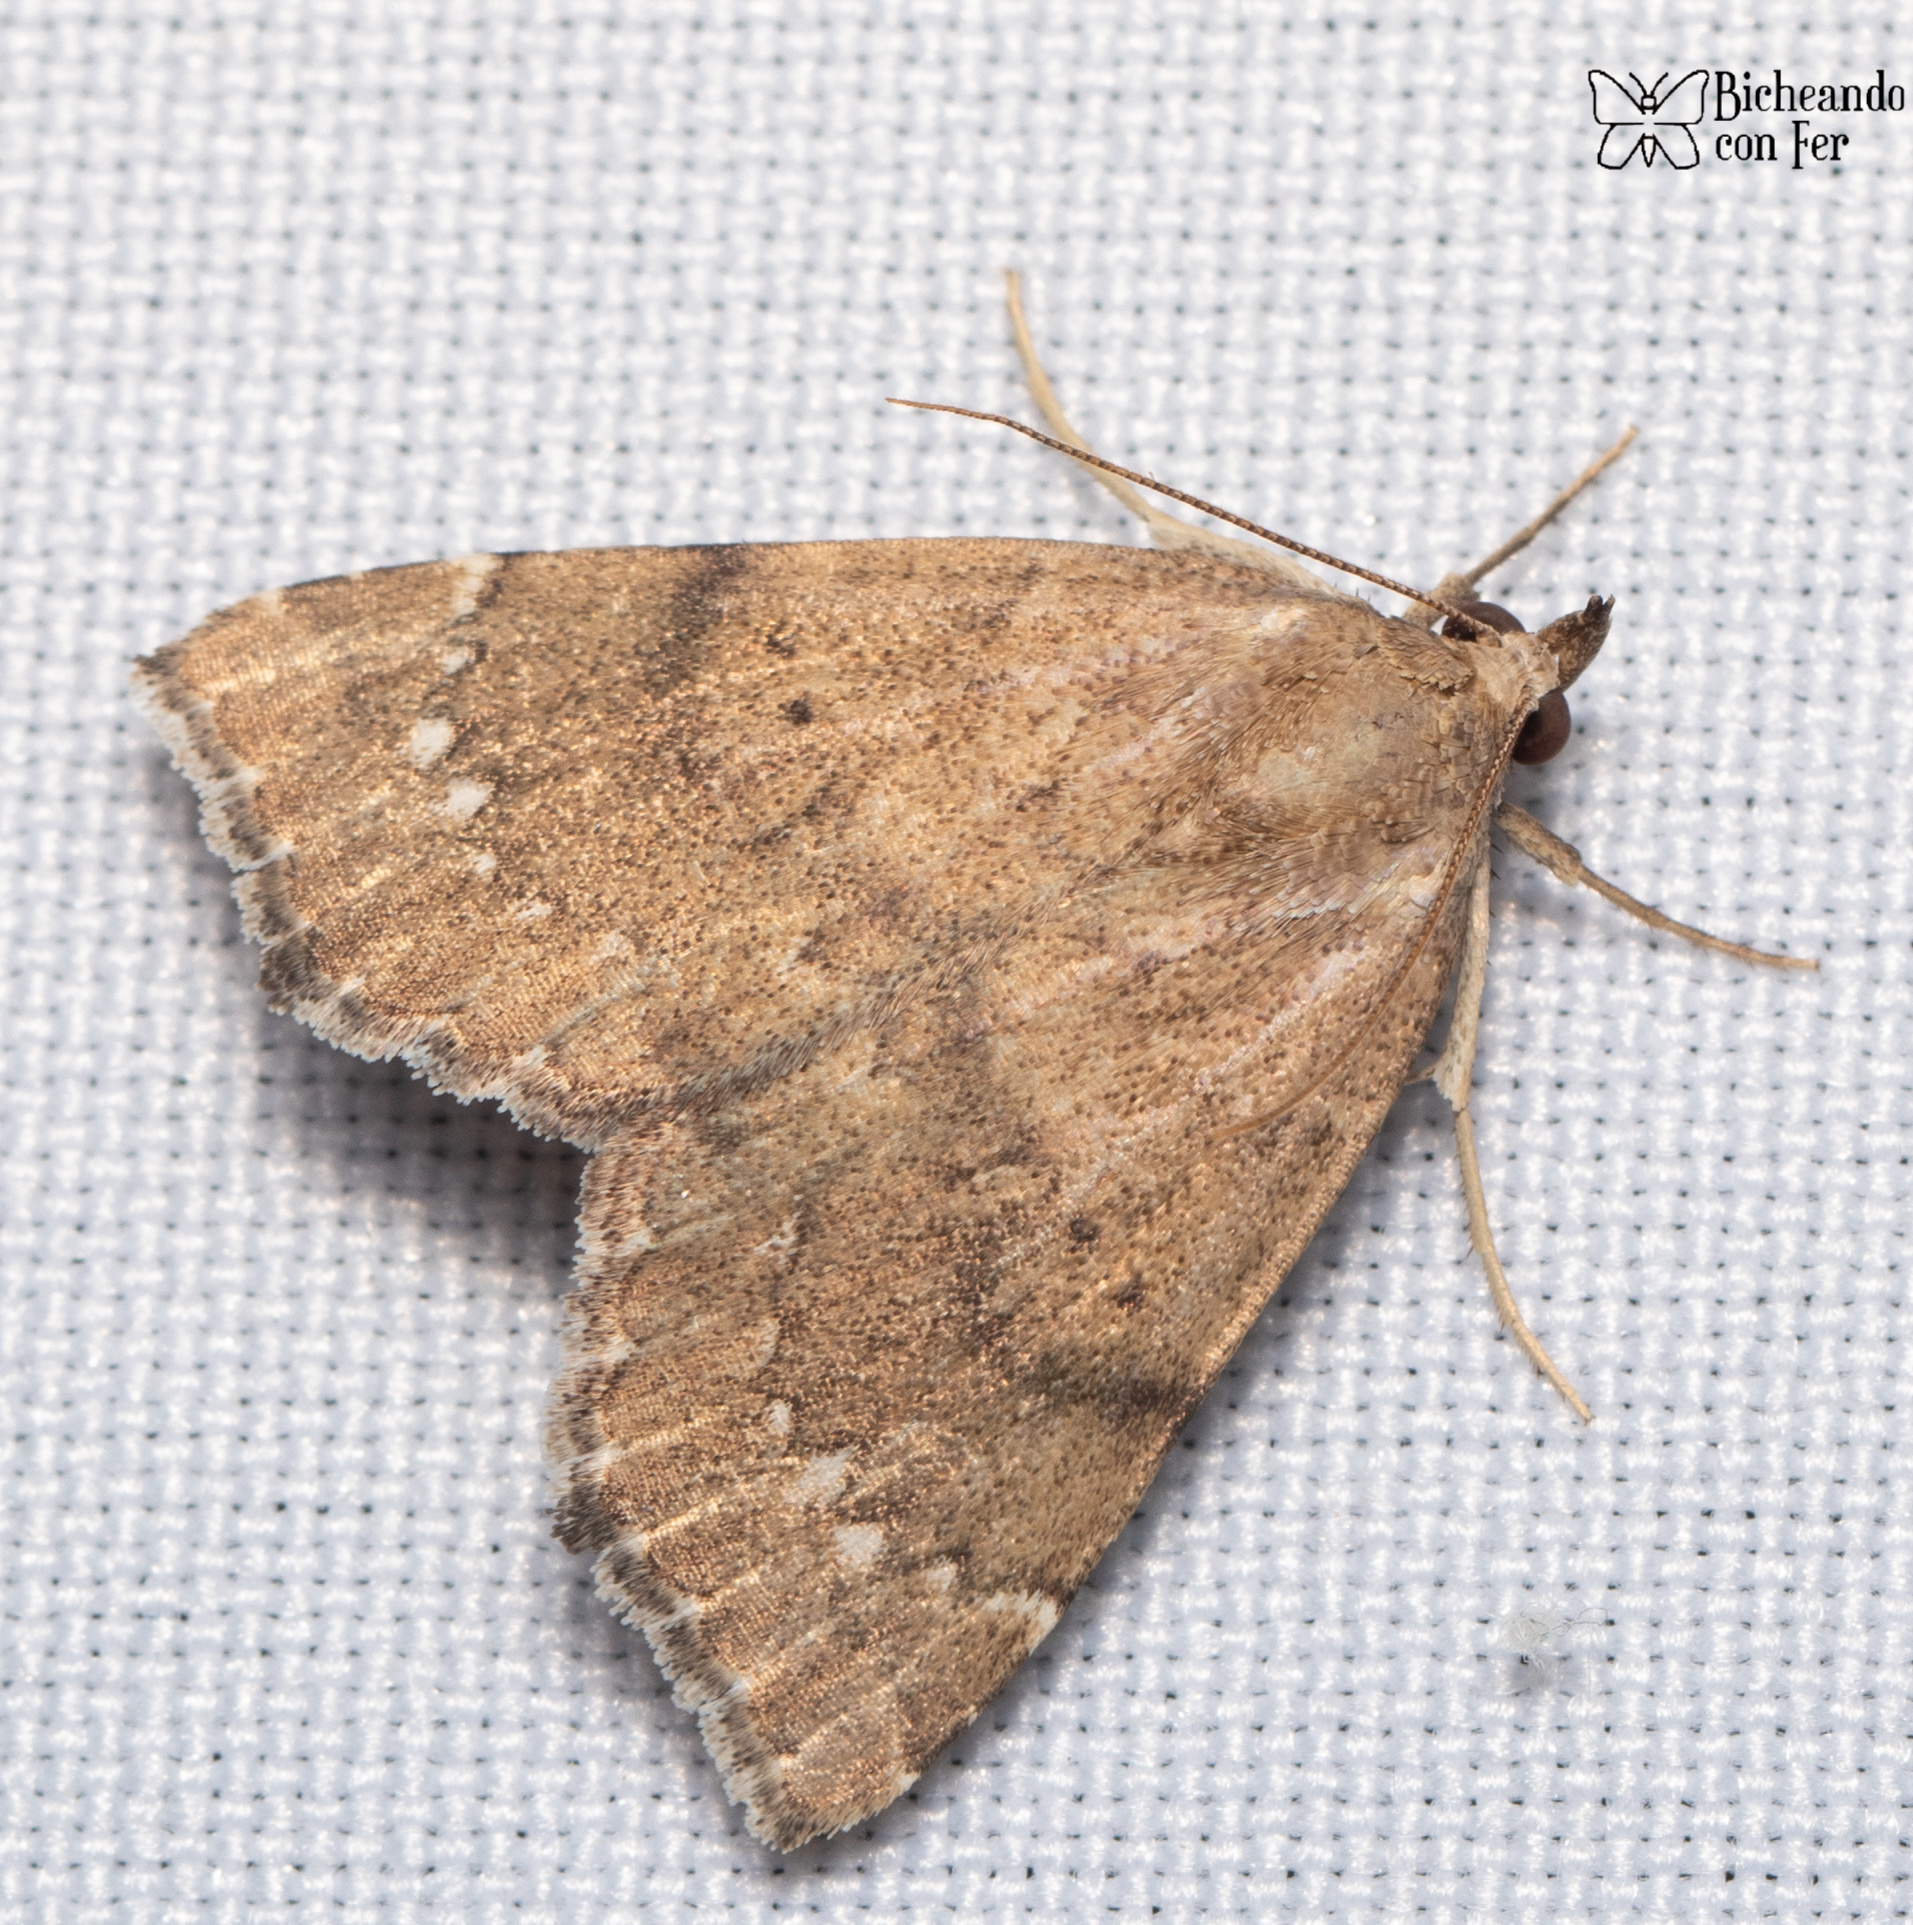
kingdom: Animalia
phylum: Arthropoda
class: Insecta
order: Lepidoptera
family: Erebidae
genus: Focillidia
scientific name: Focillidia texana
